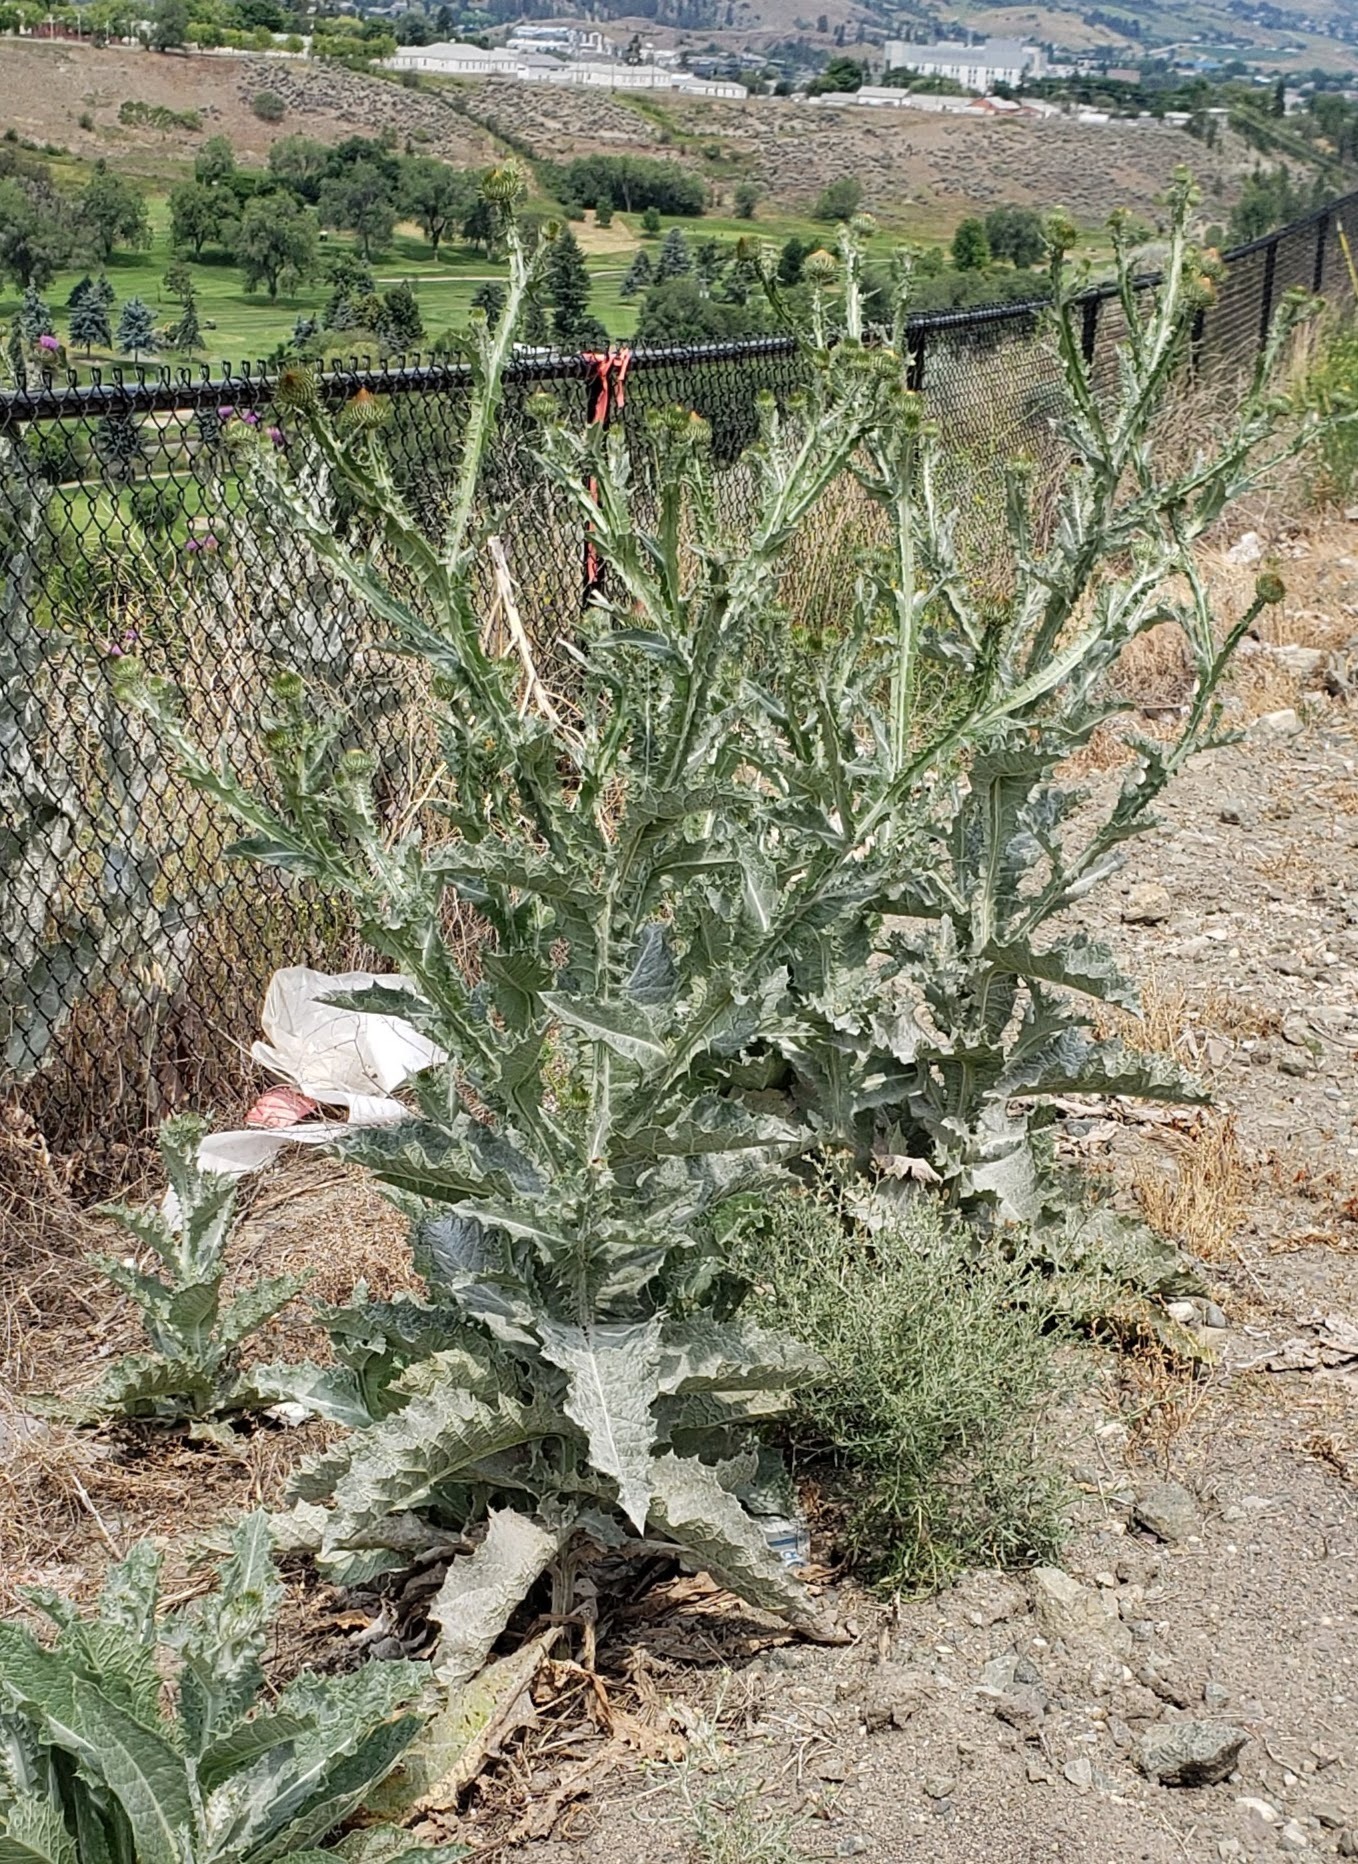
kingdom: Plantae
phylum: Tracheophyta
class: Magnoliopsida
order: Asterales
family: Asteraceae
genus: Onopordum
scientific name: Onopordum acanthium
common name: Scotch thistle
